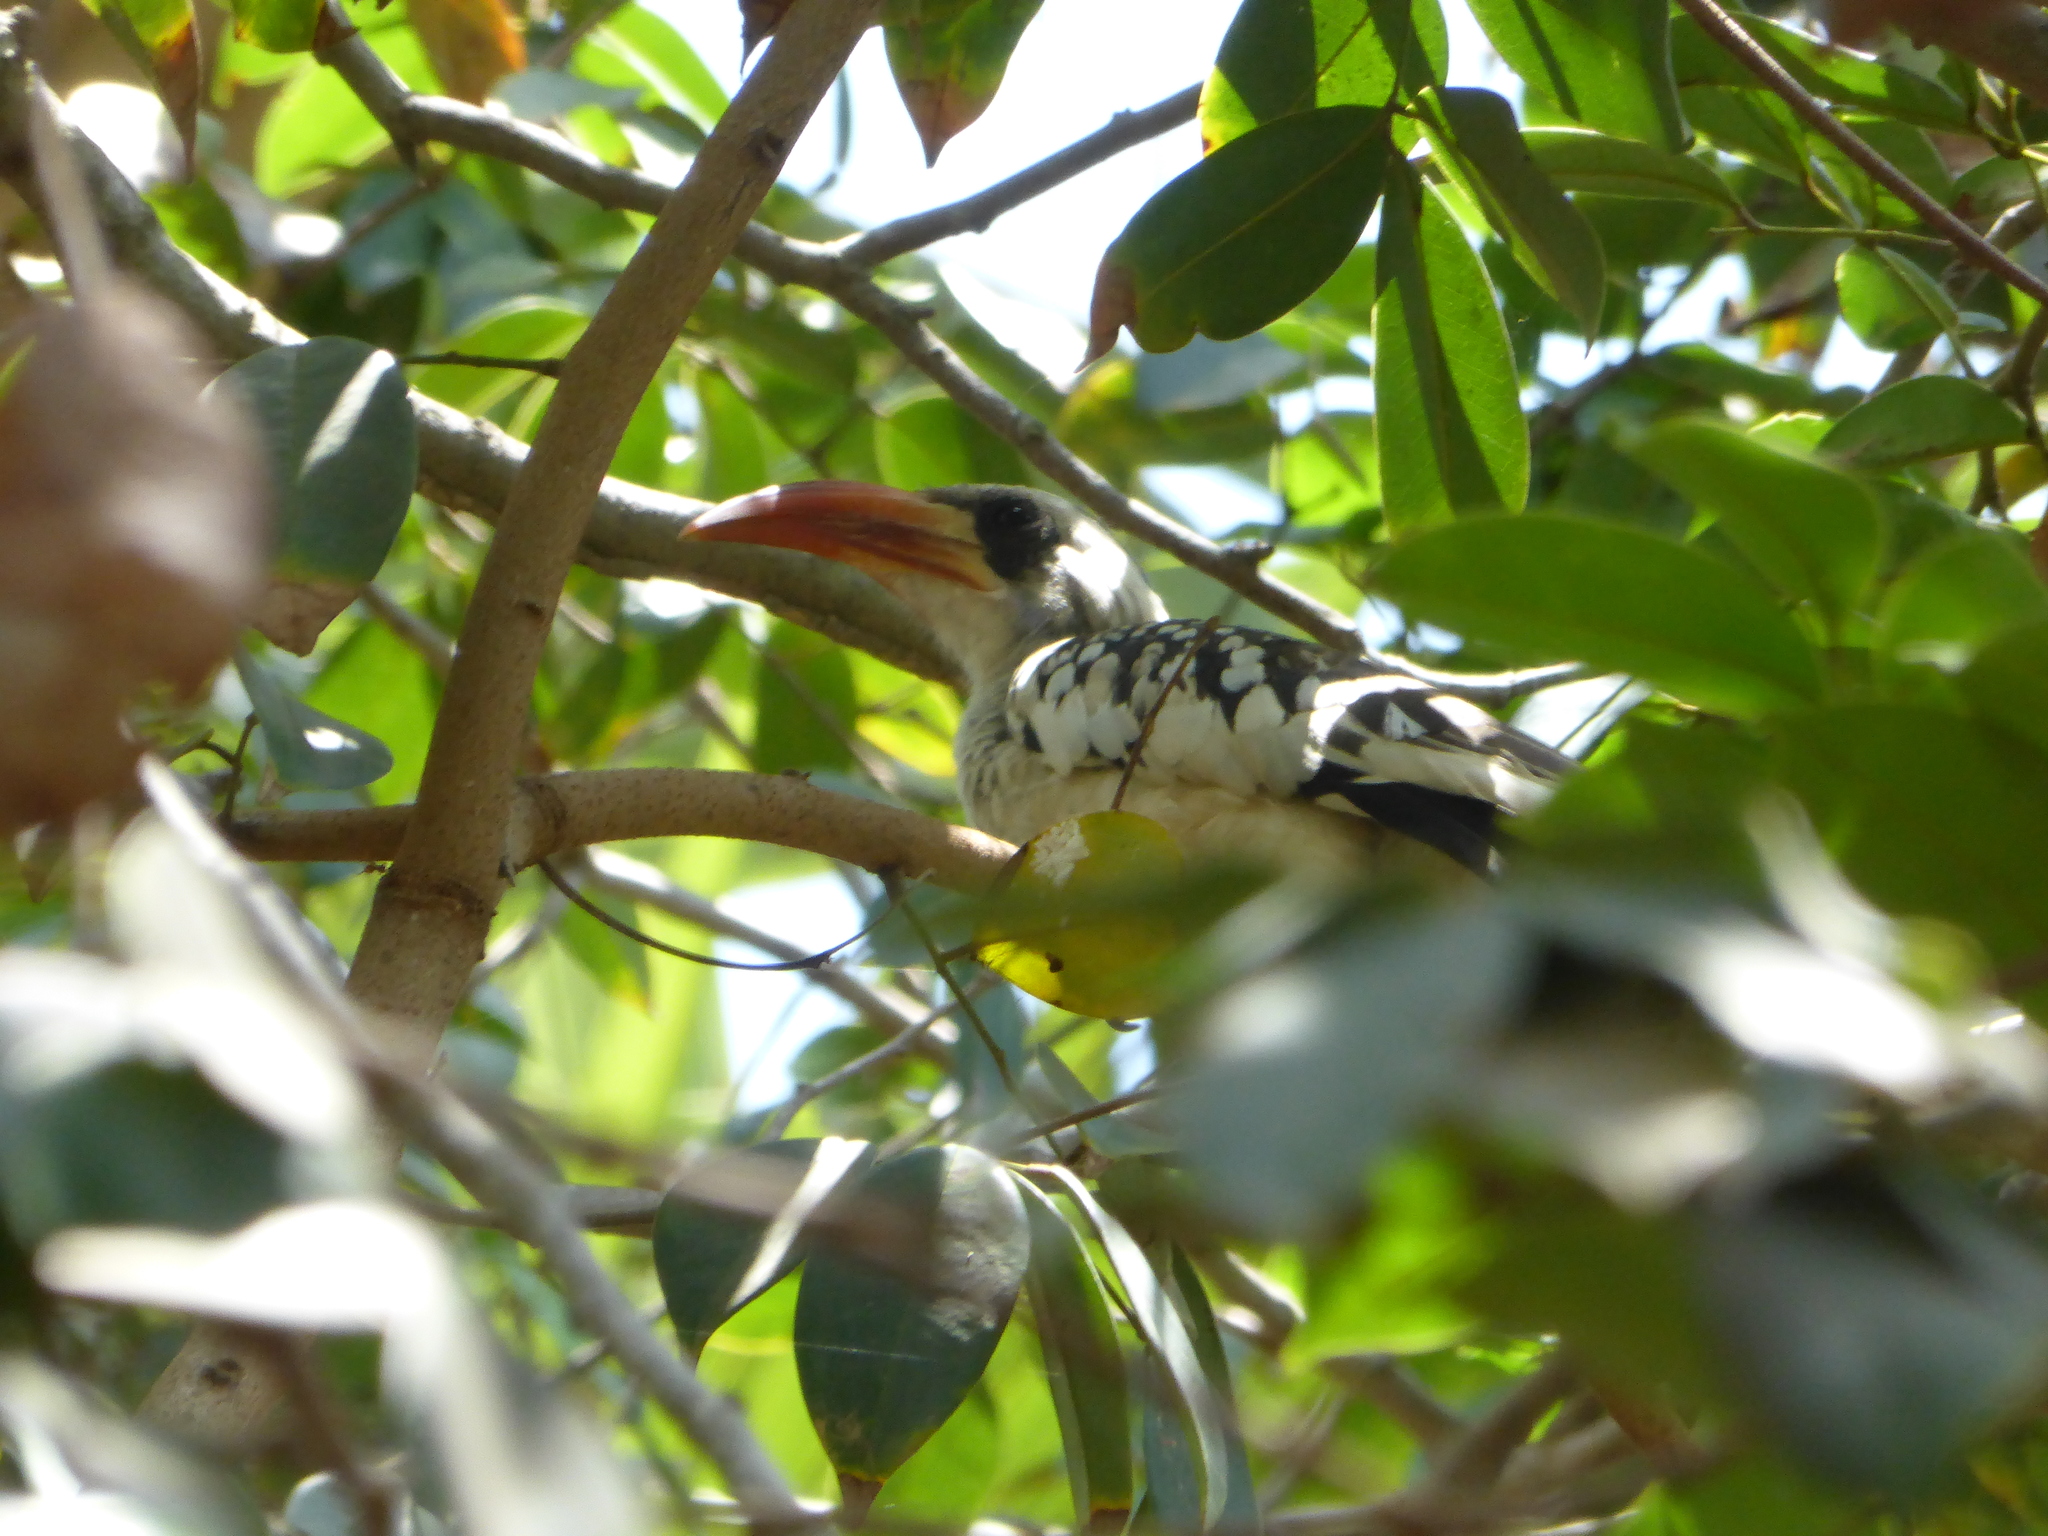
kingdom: Animalia
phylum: Chordata
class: Aves
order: Bucerotiformes
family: Bucerotidae
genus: Tockus
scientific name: Tockus kempi
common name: Western red-billed hornbill
